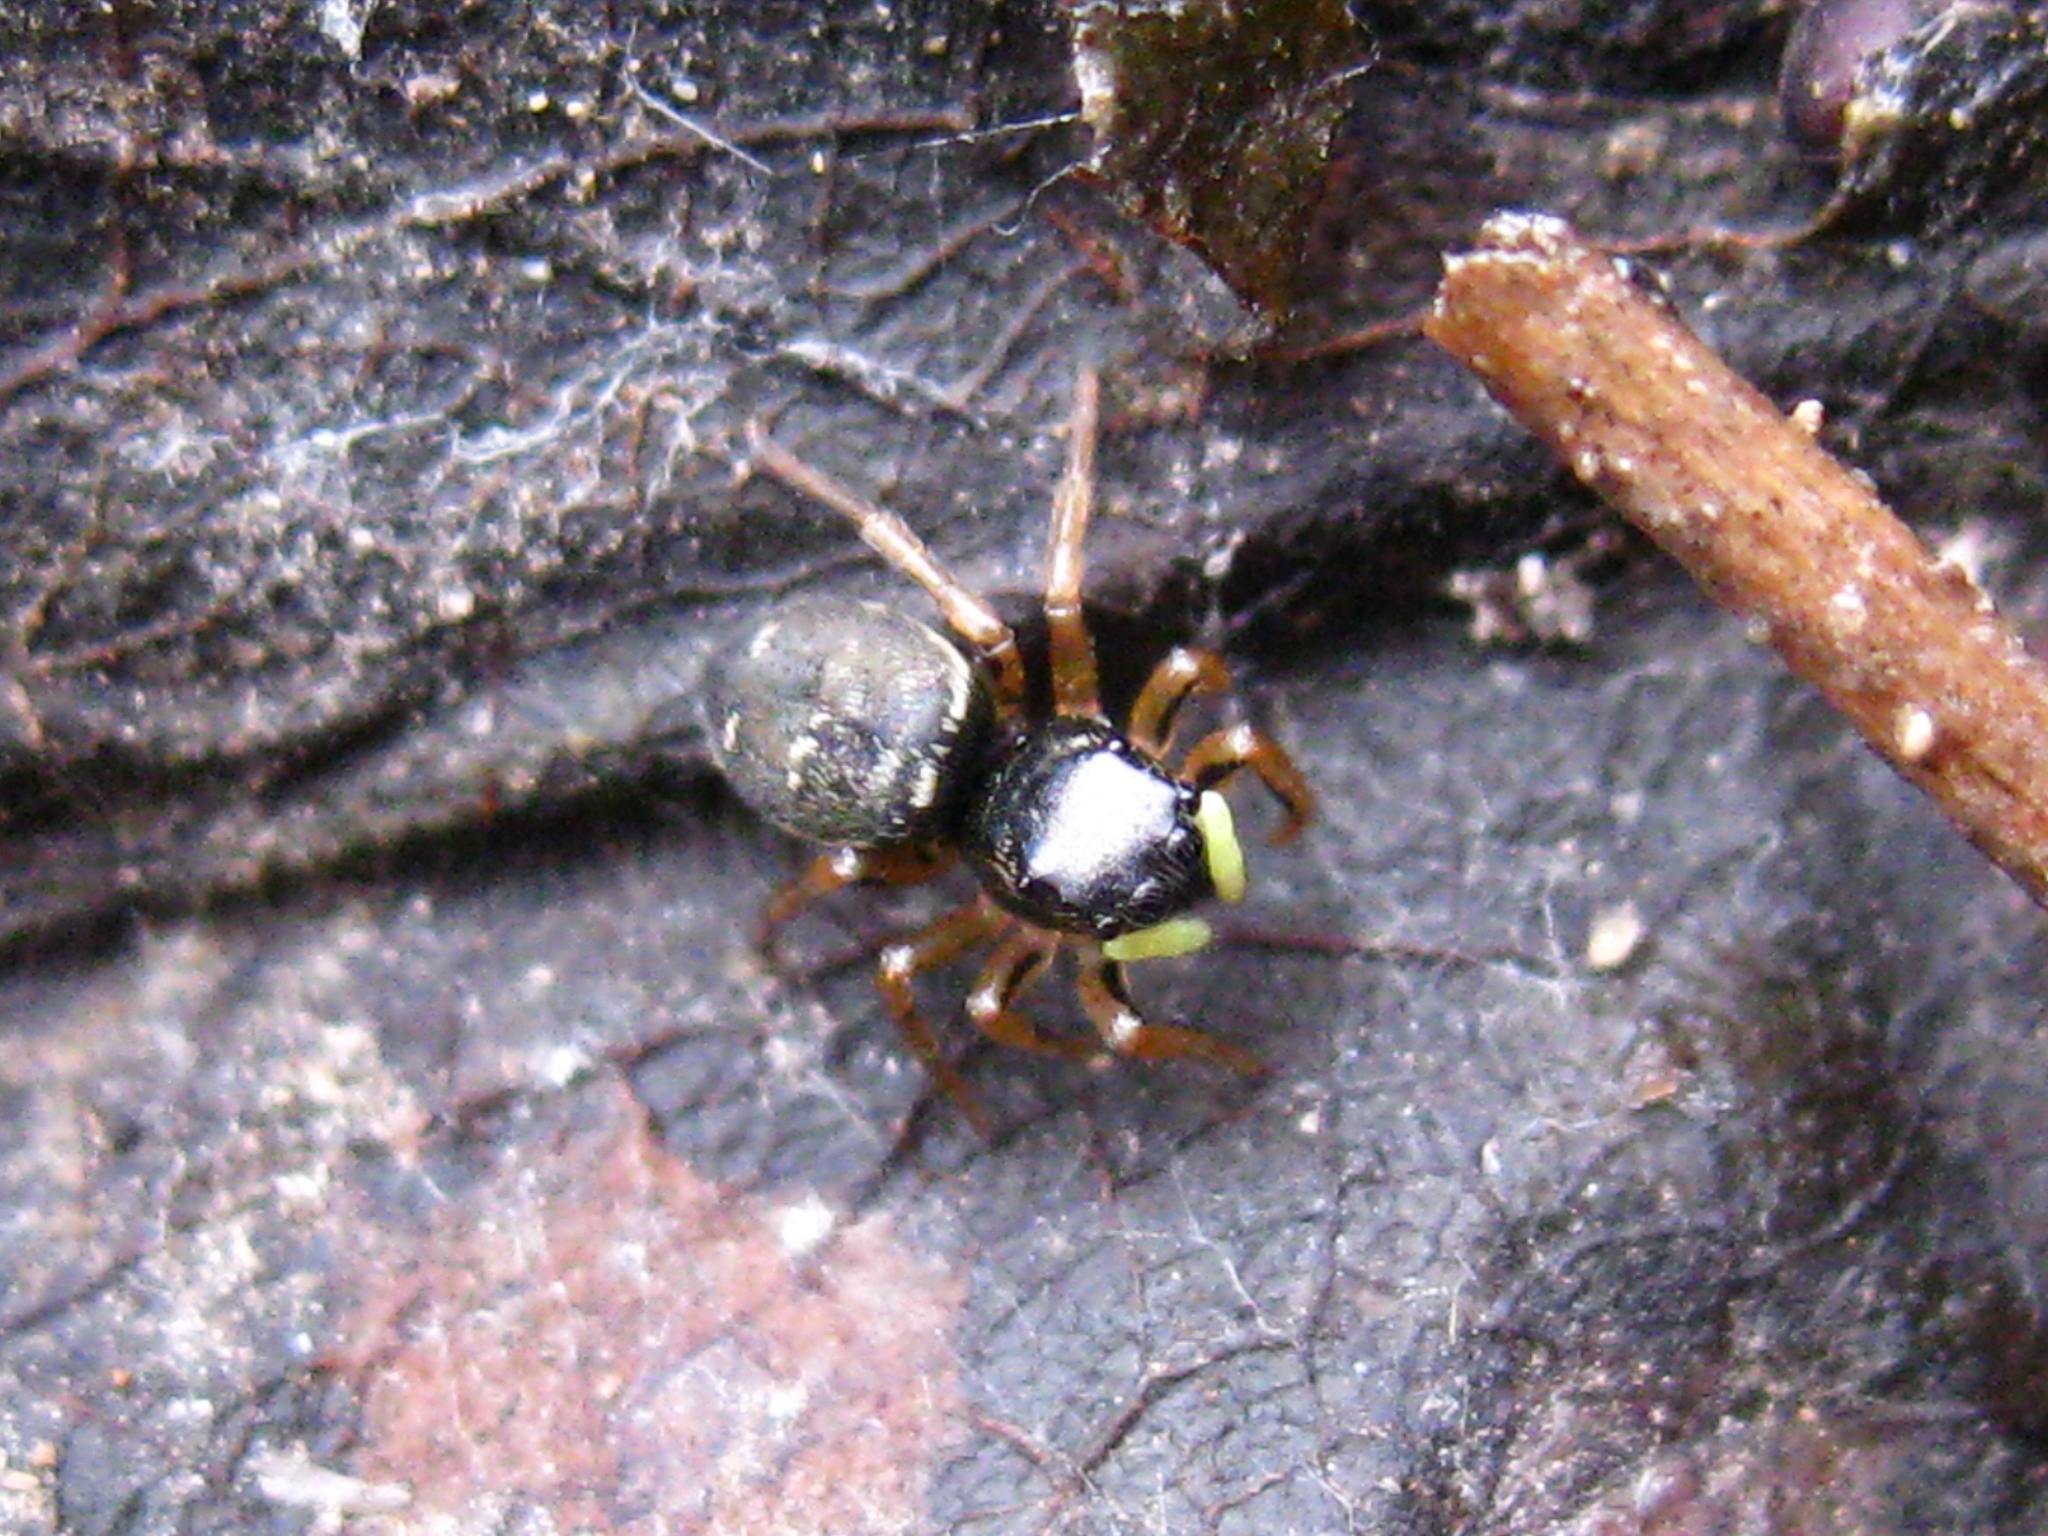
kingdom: Animalia
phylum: Arthropoda
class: Arachnida
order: Araneae
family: Salticidae
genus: Heliophanus
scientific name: Heliophanus cupreus
